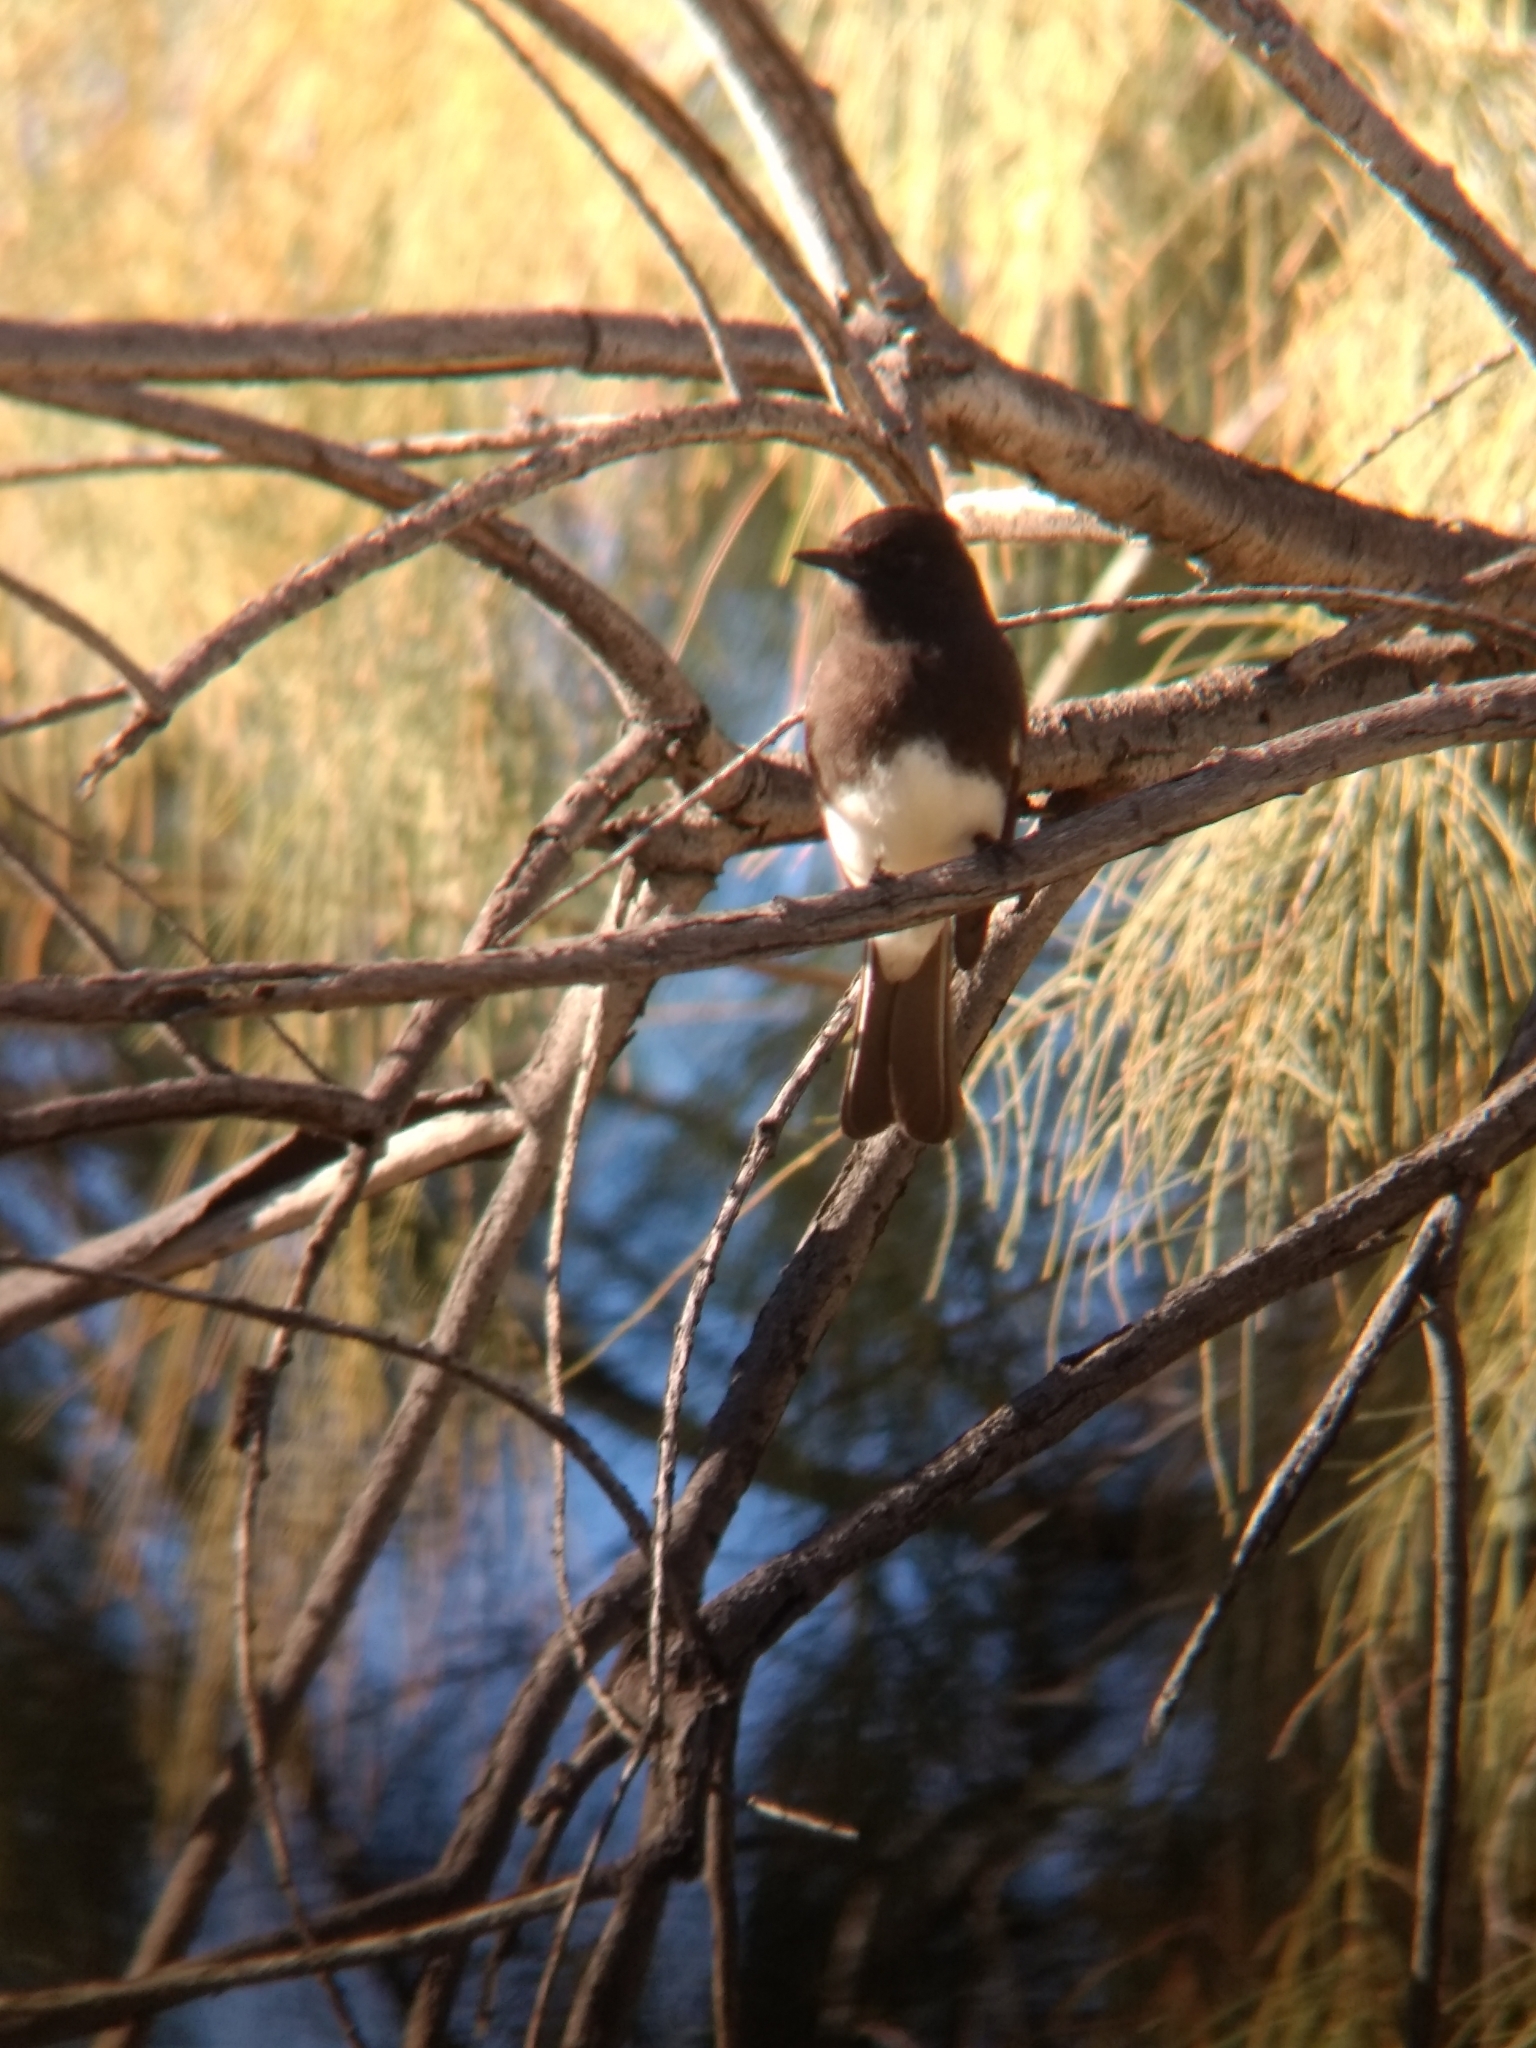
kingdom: Animalia
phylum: Chordata
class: Aves
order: Passeriformes
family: Tyrannidae
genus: Sayornis
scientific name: Sayornis nigricans
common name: Black phoebe
